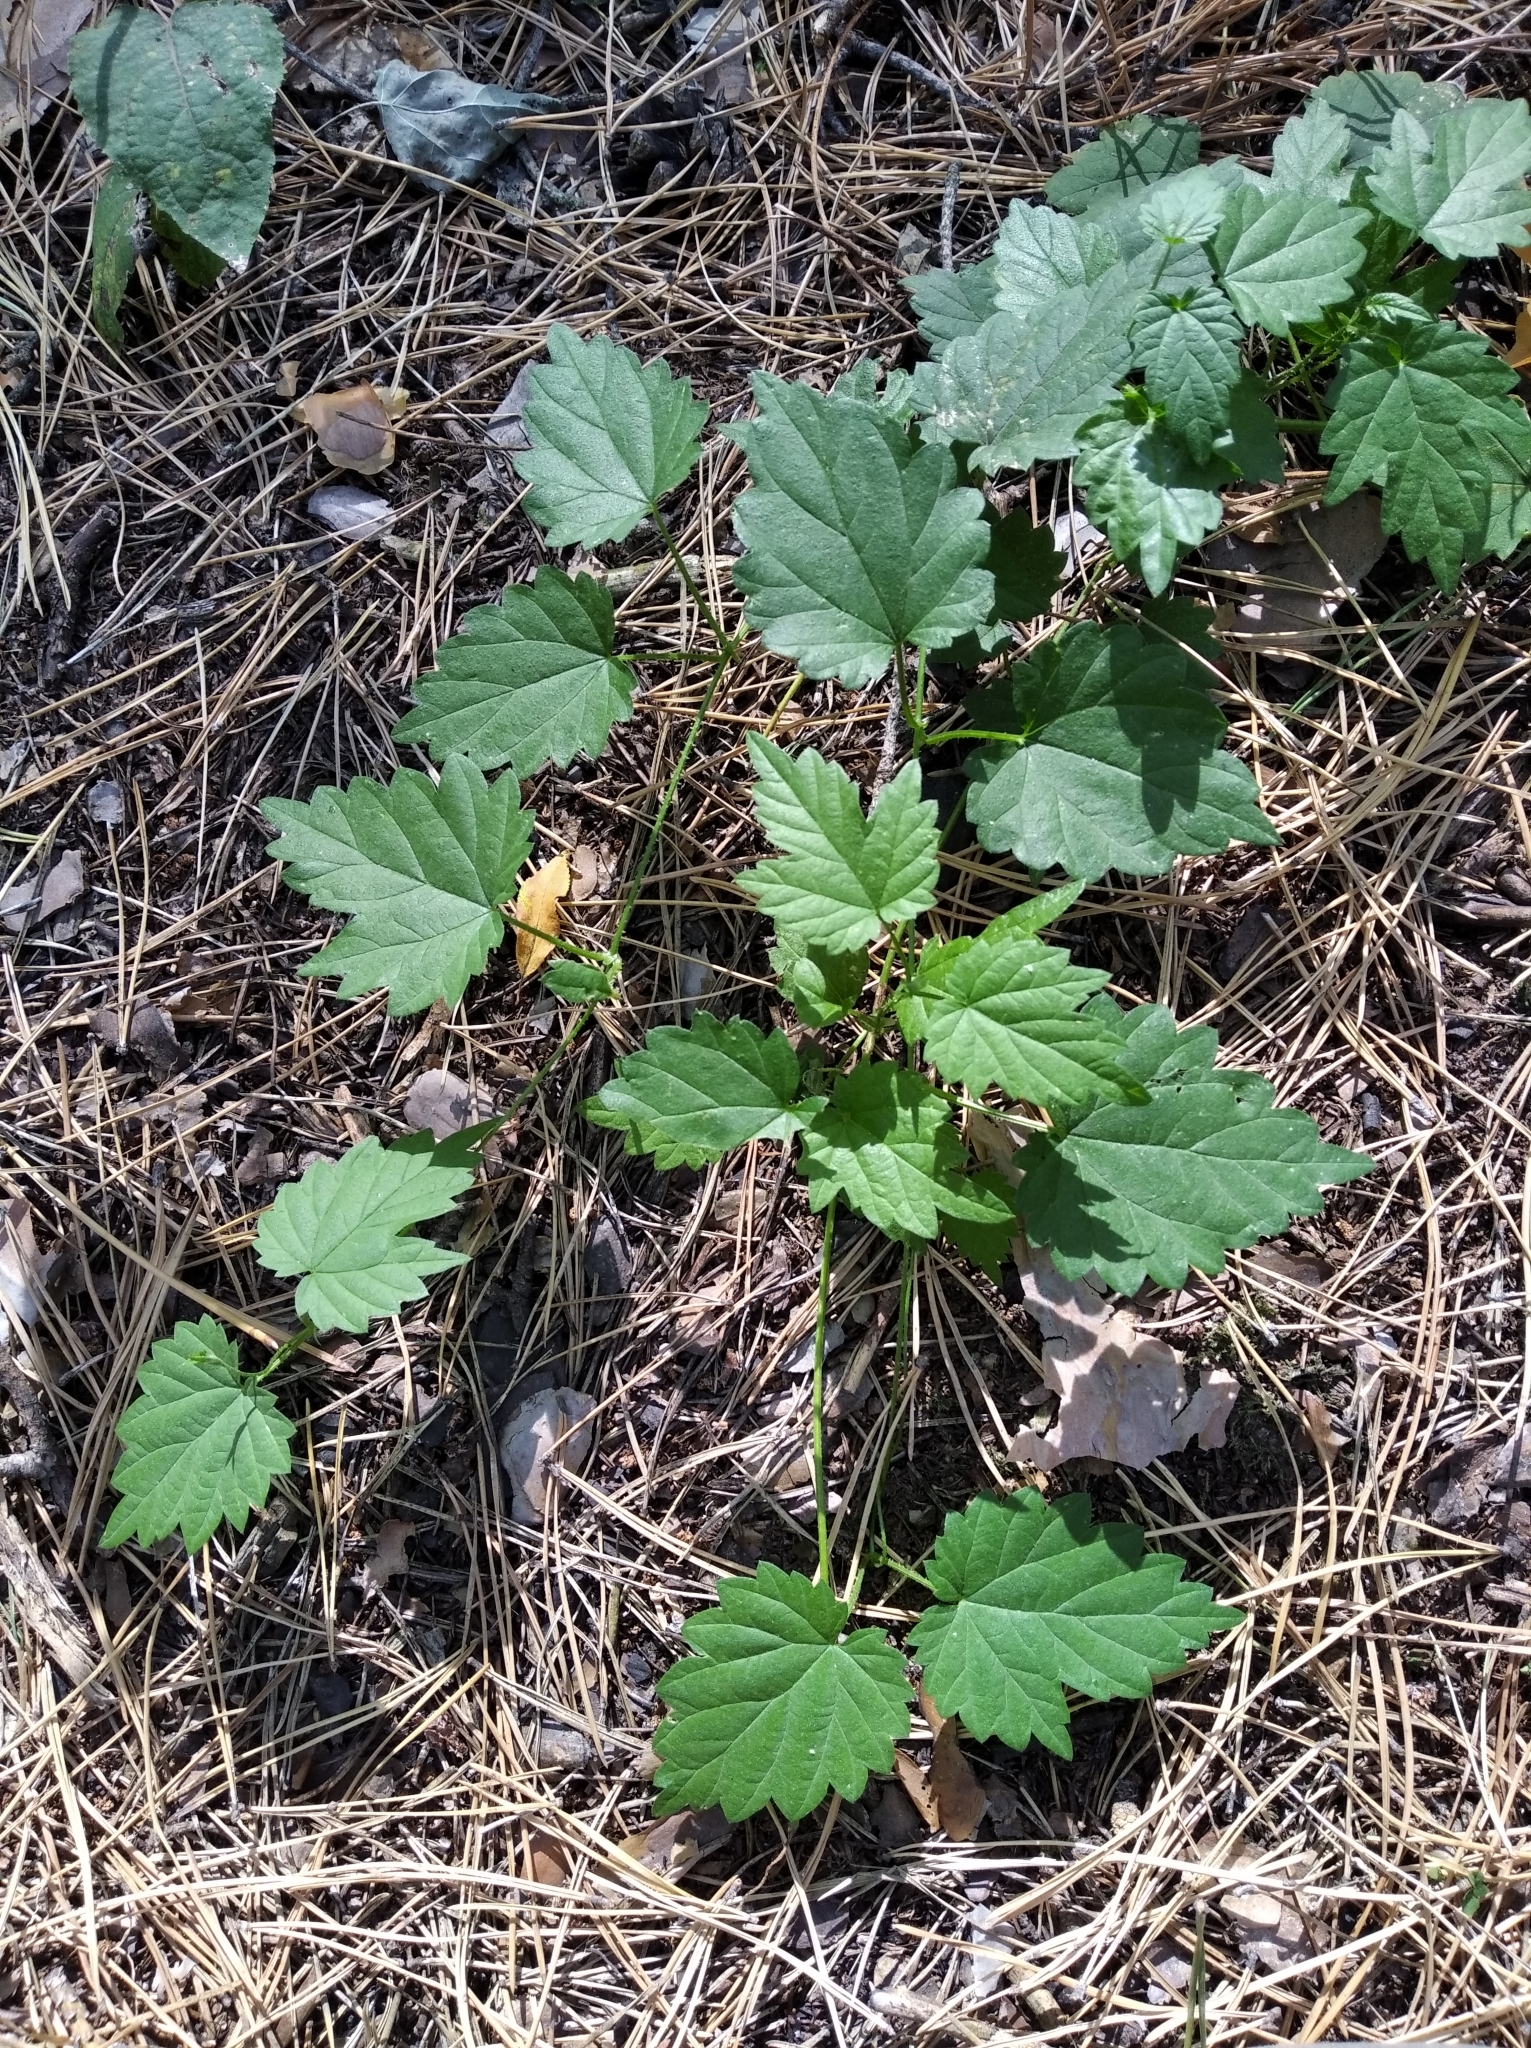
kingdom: Plantae
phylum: Tracheophyta
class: Magnoliopsida
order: Rosales
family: Cannabaceae
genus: Humulus
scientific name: Humulus lupulus
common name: Hop
